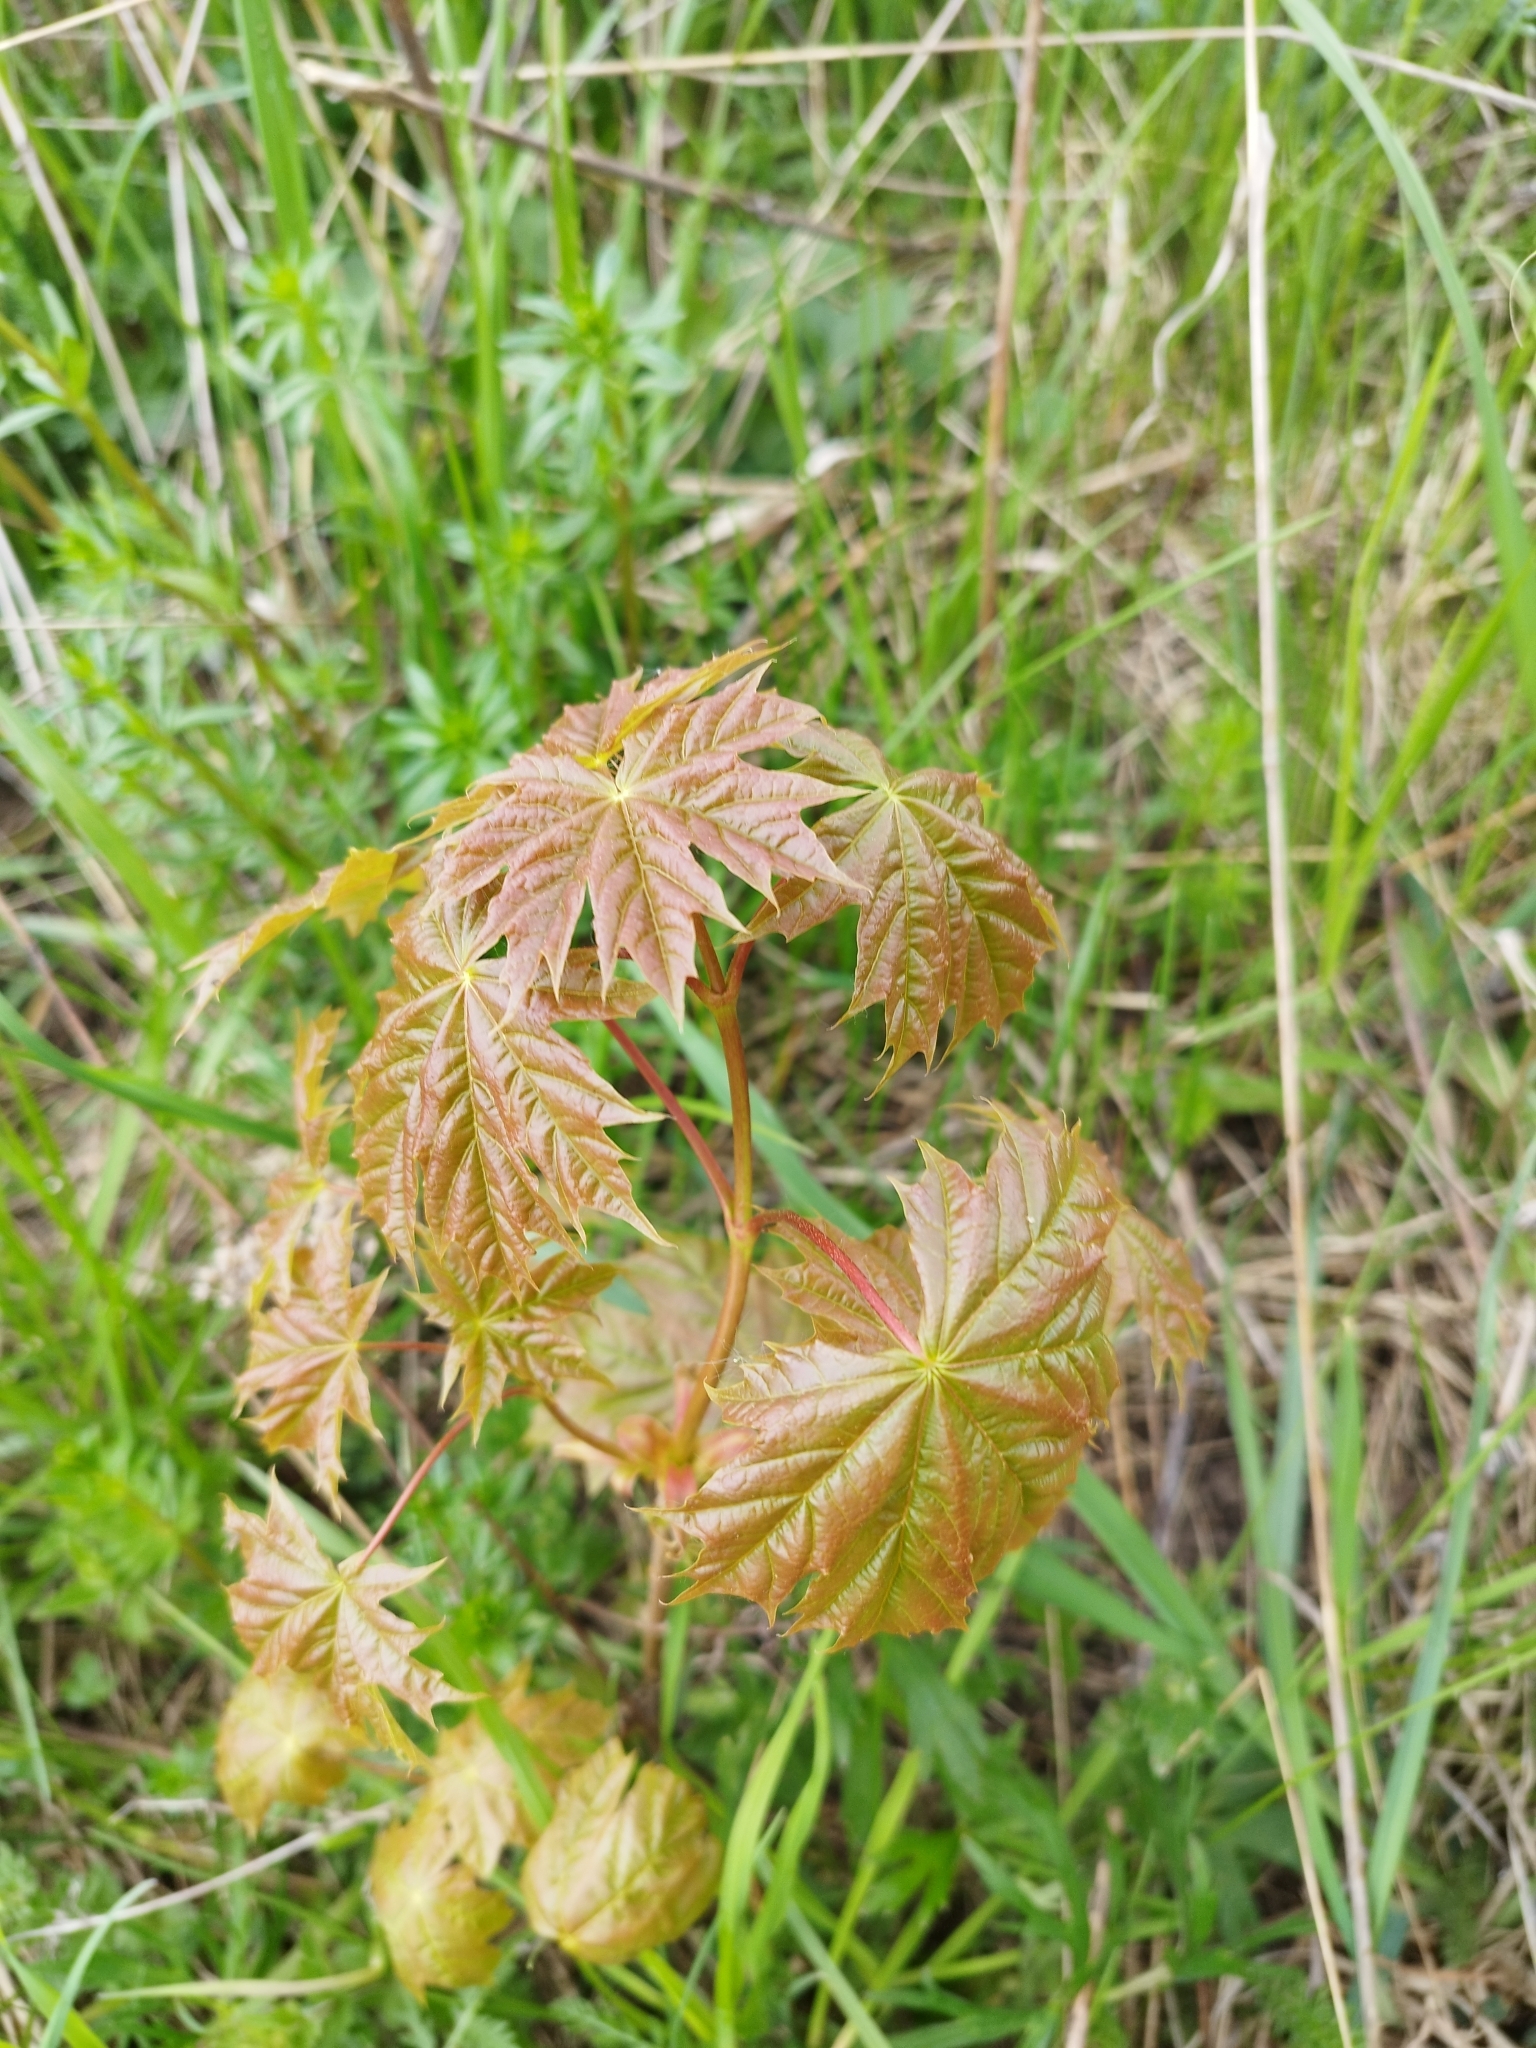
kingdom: Plantae
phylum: Tracheophyta
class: Magnoliopsida
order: Sapindales
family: Sapindaceae
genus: Acer
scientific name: Acer platanoides
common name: Norway maple
